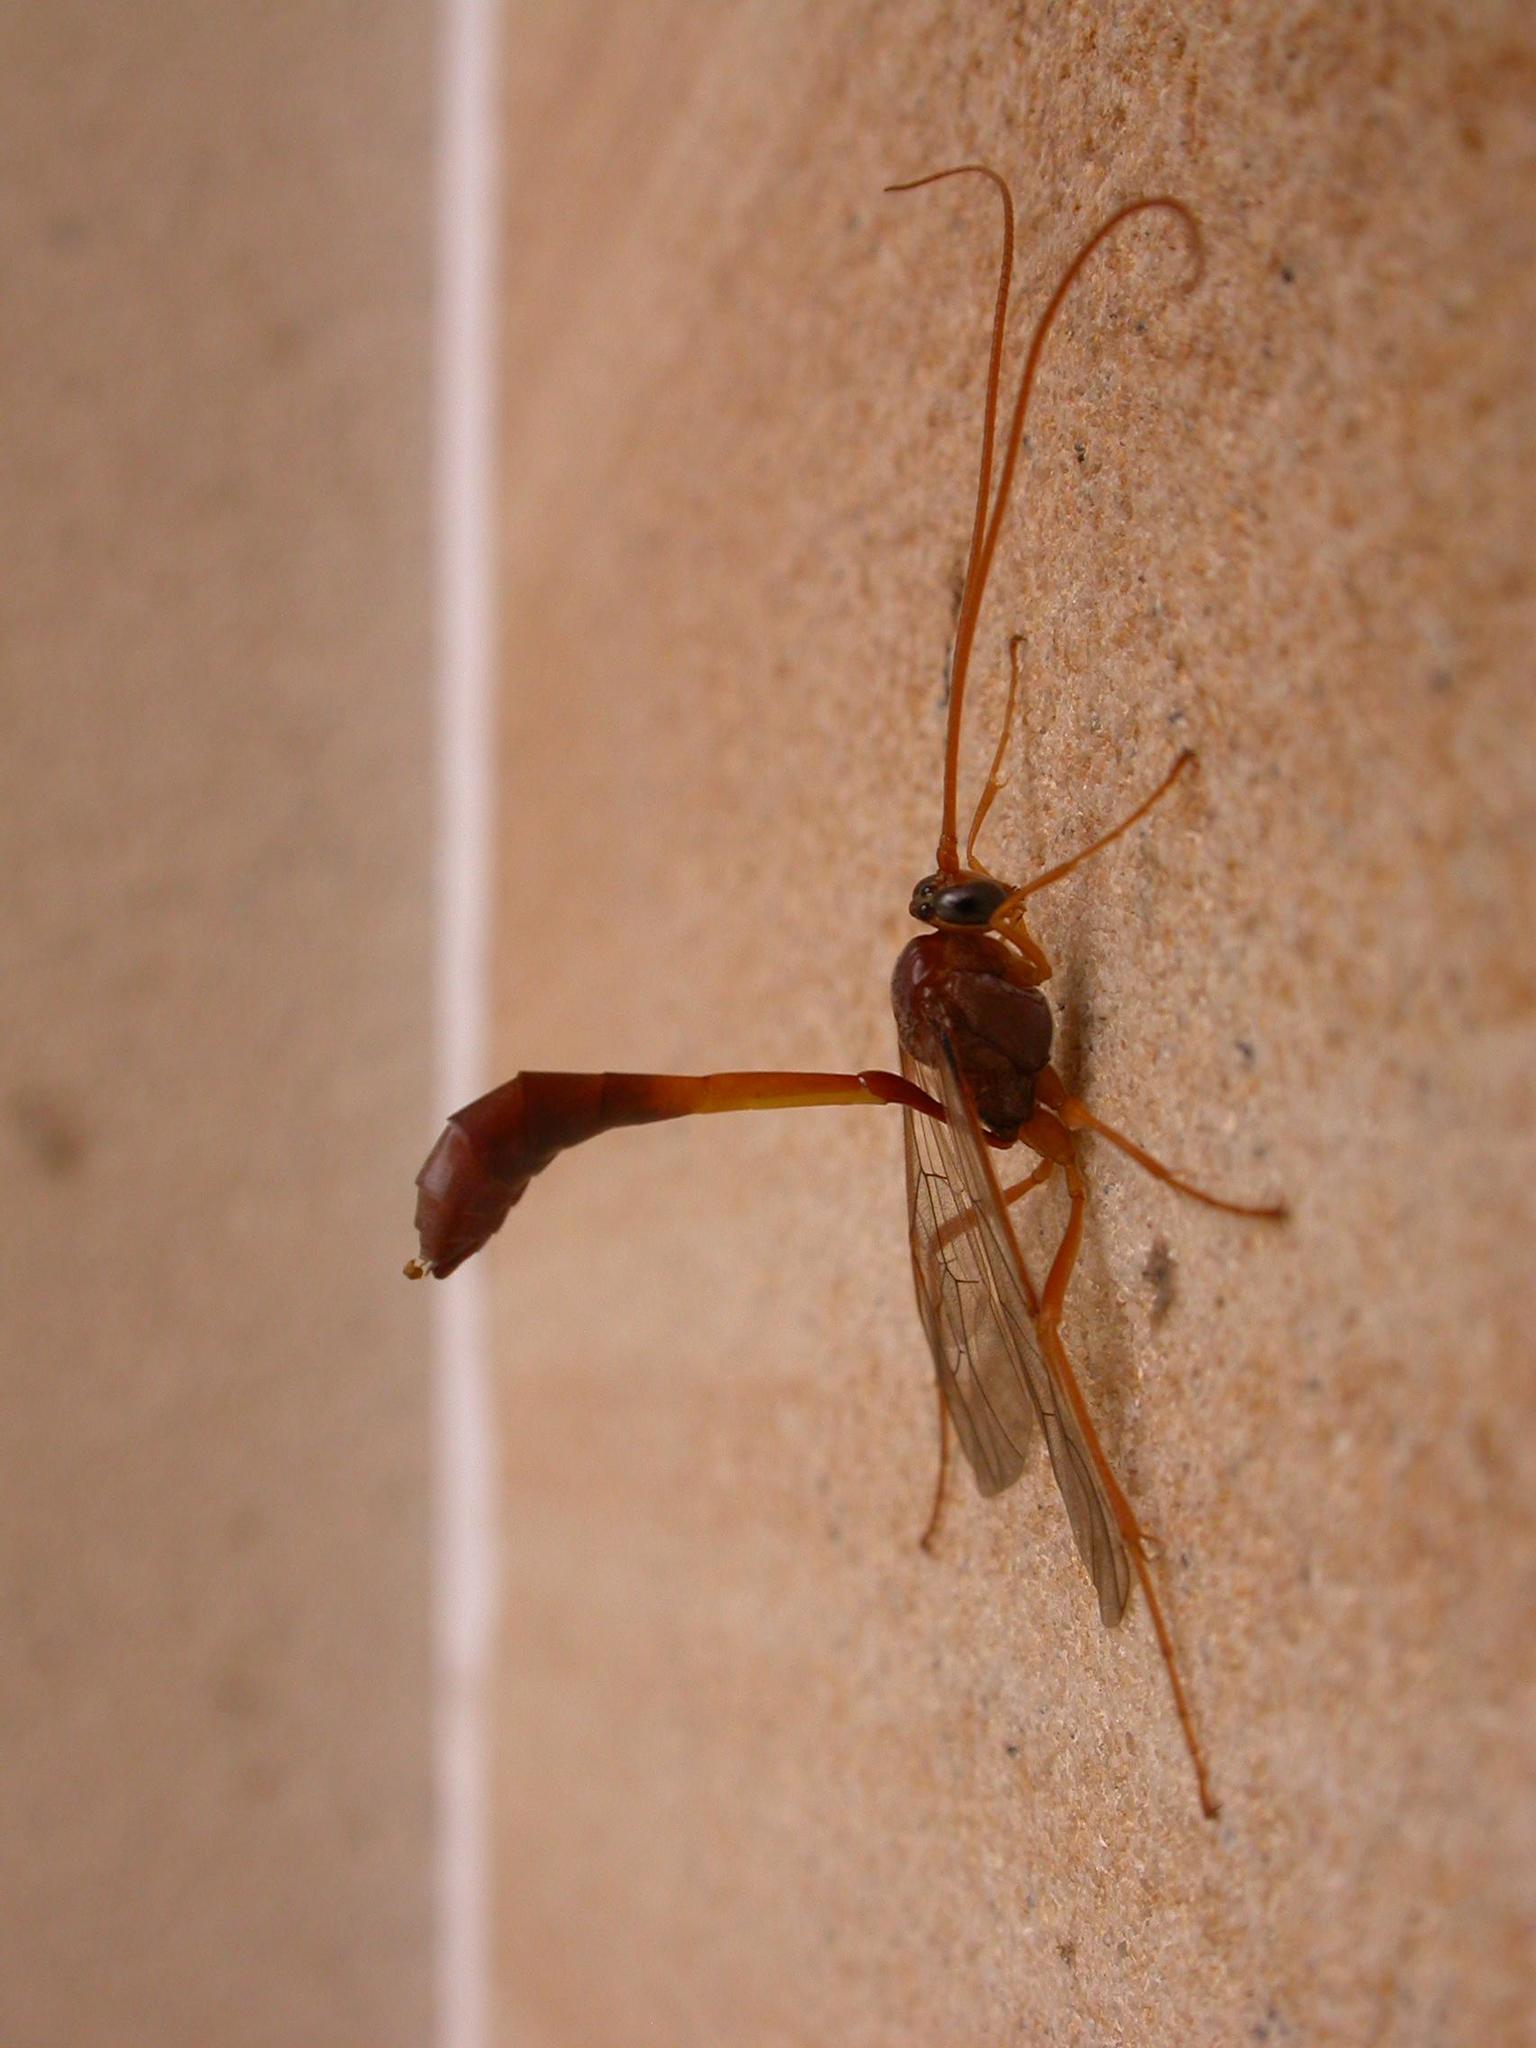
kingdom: Animalia
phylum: Arthropoda
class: Insecta
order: Hymenoptera
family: Ichneumonidae
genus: Enicospilus
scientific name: Enicospilus sausi
